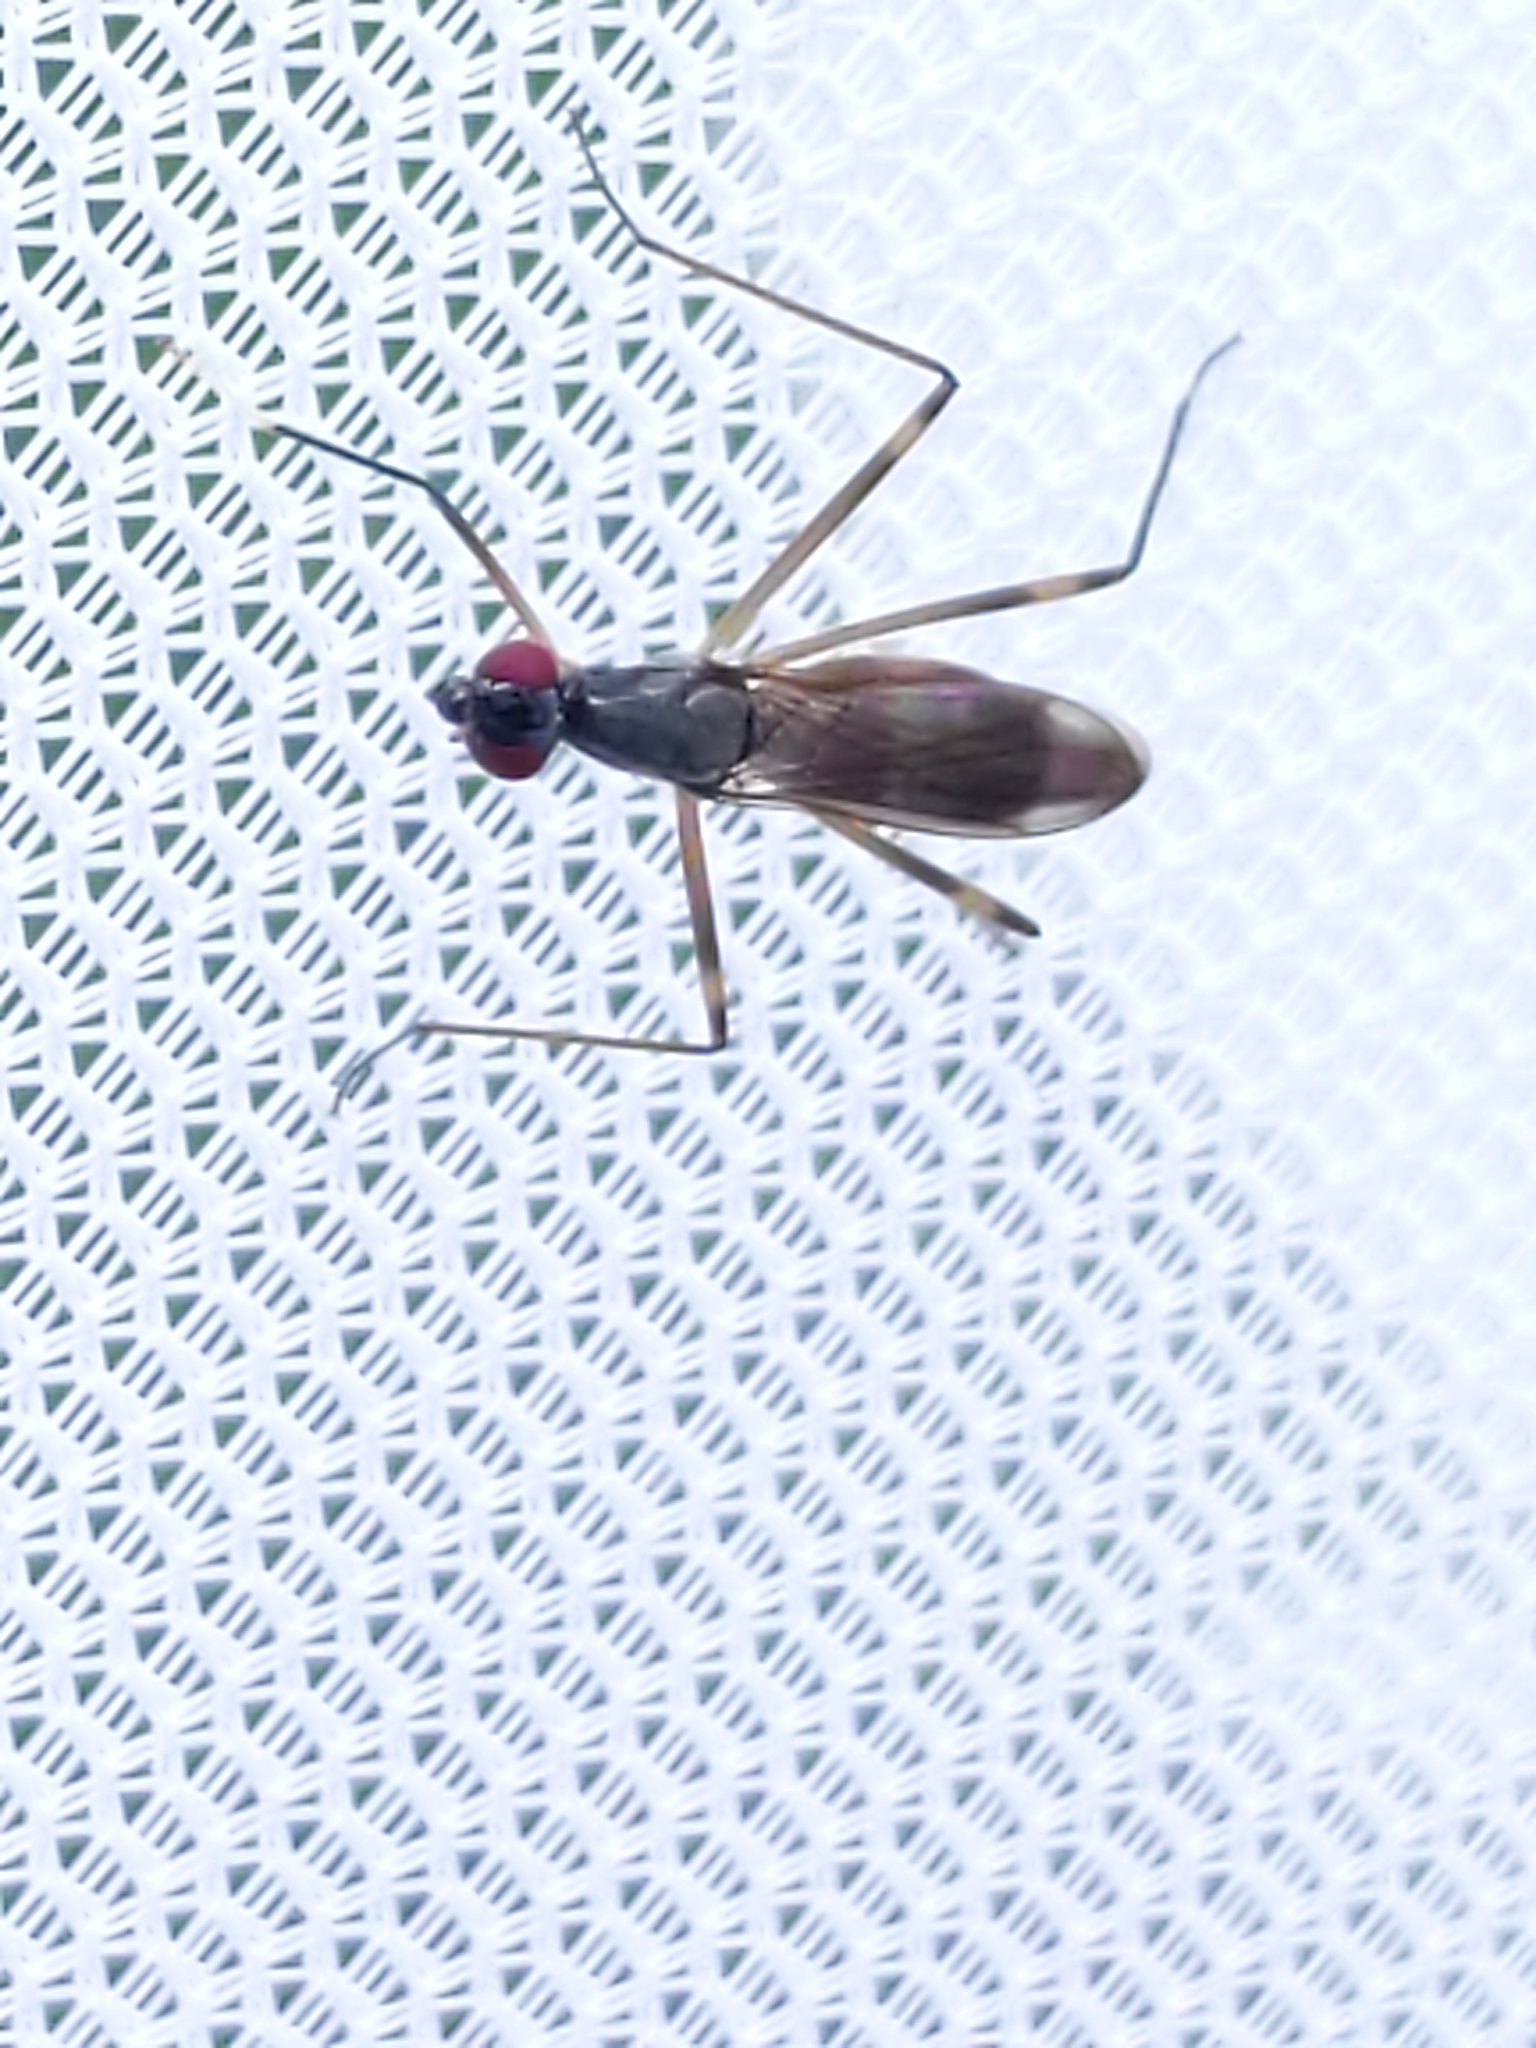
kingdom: Animalia
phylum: Arthropoda
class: Insecta
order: Diptera
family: Micropezidae
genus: Rainieria
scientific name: Rainieria antennaepes
